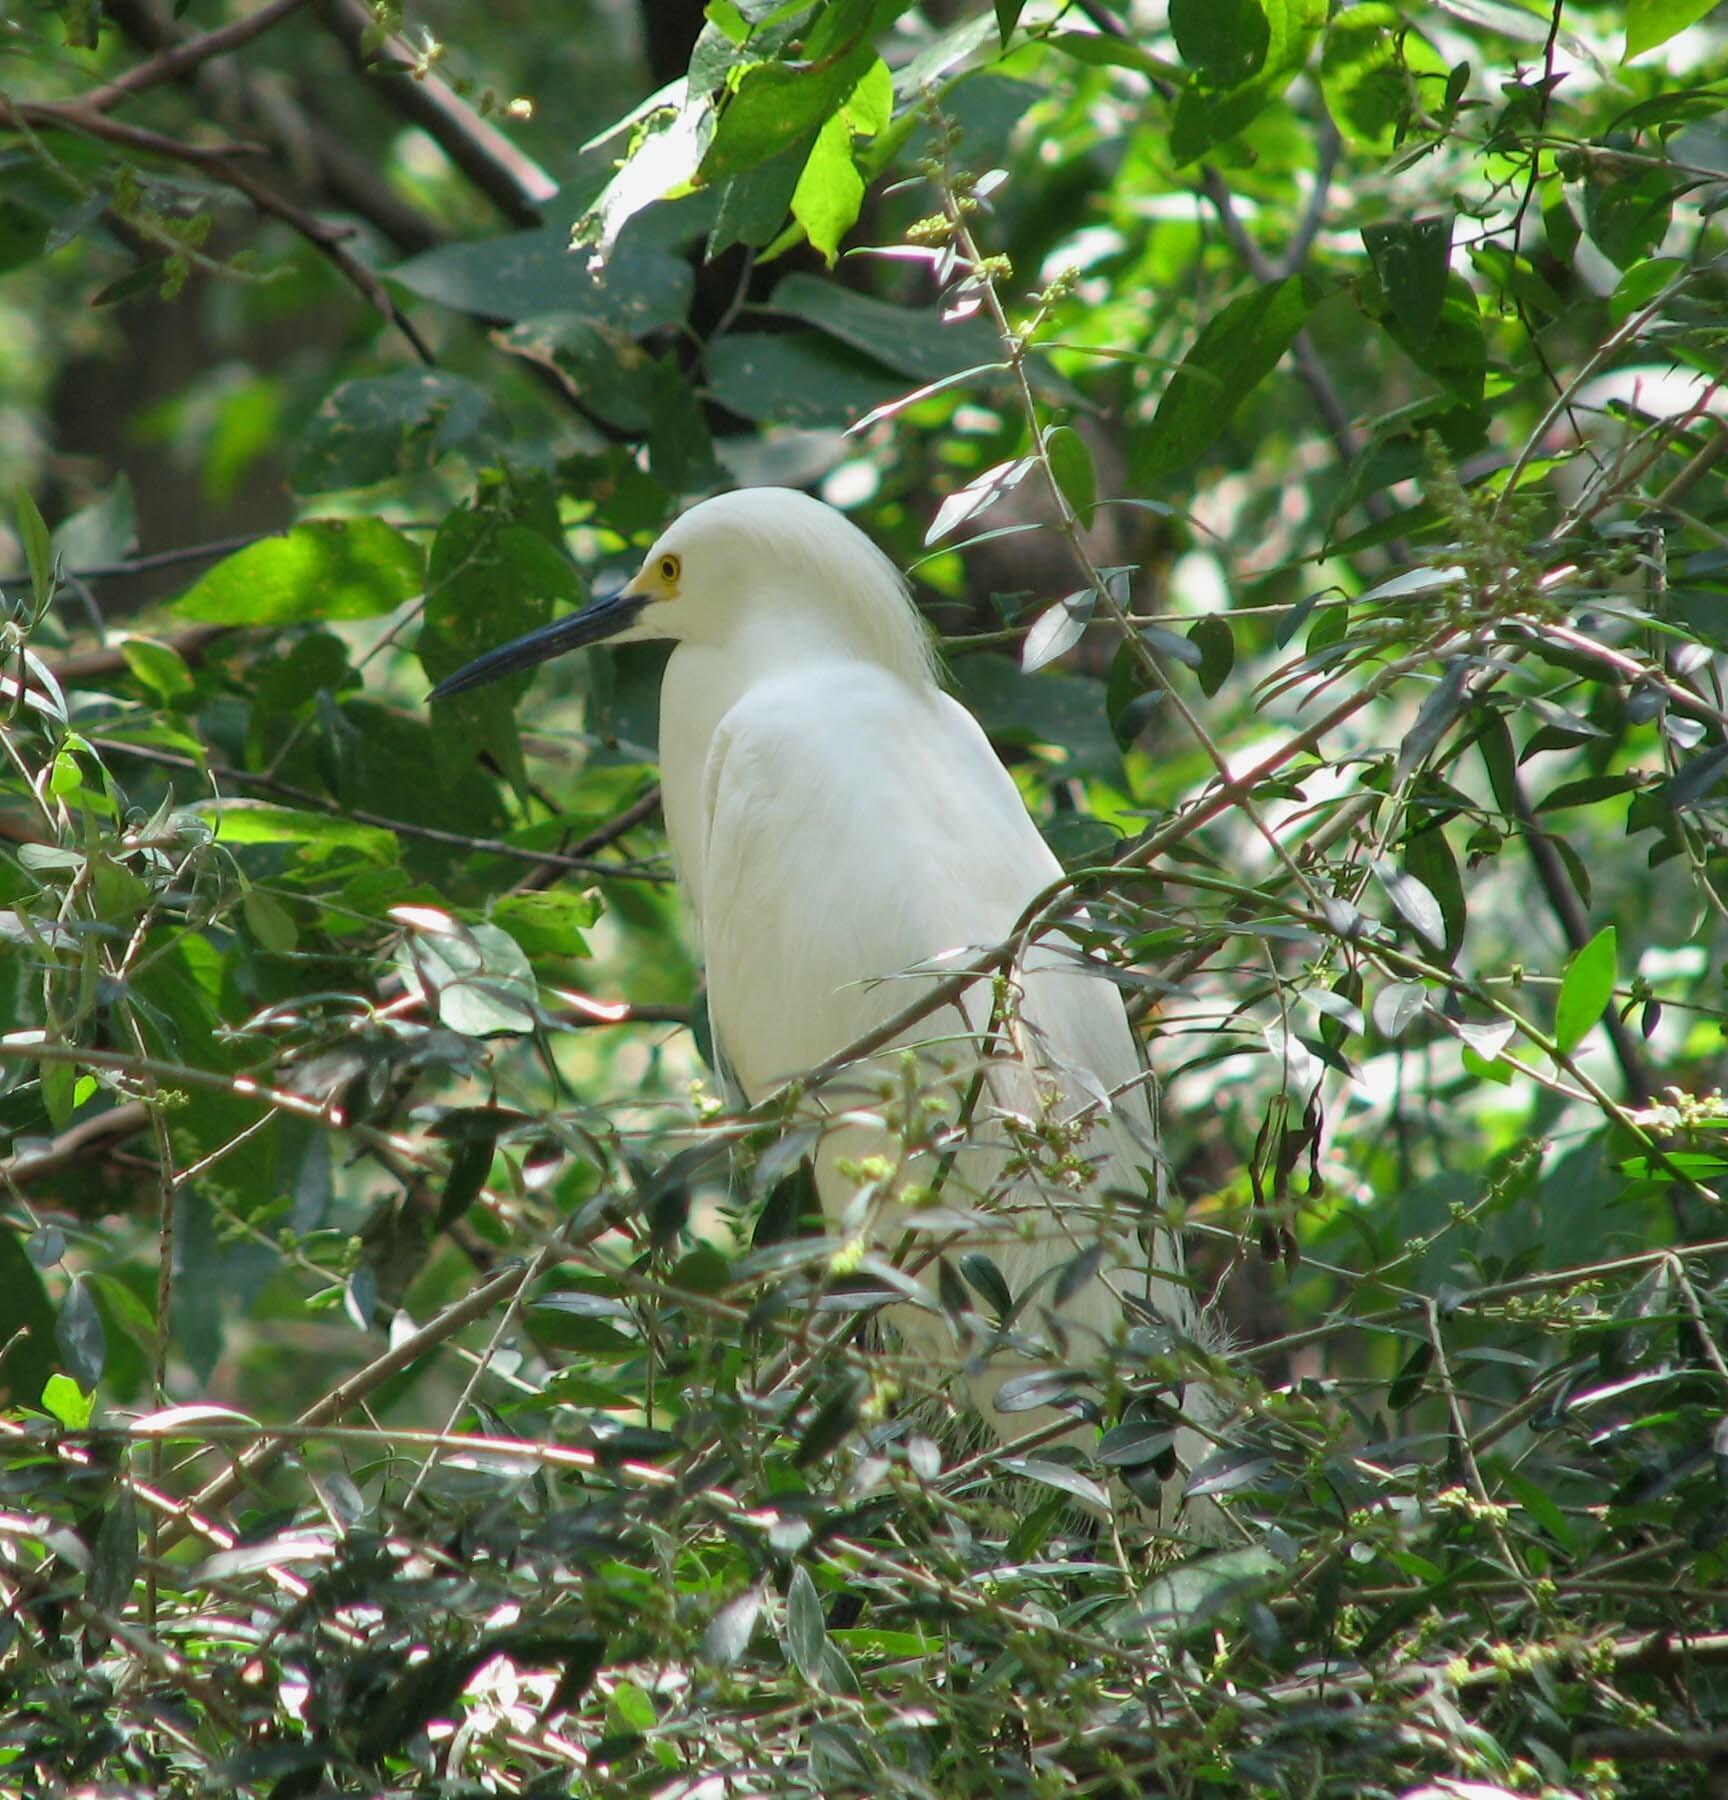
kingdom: Animalia
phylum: Chordata
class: Aves
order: Pelecaniformes
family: Ardeidae
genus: Egretta
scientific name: Egretta thula
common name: Snowy egret
